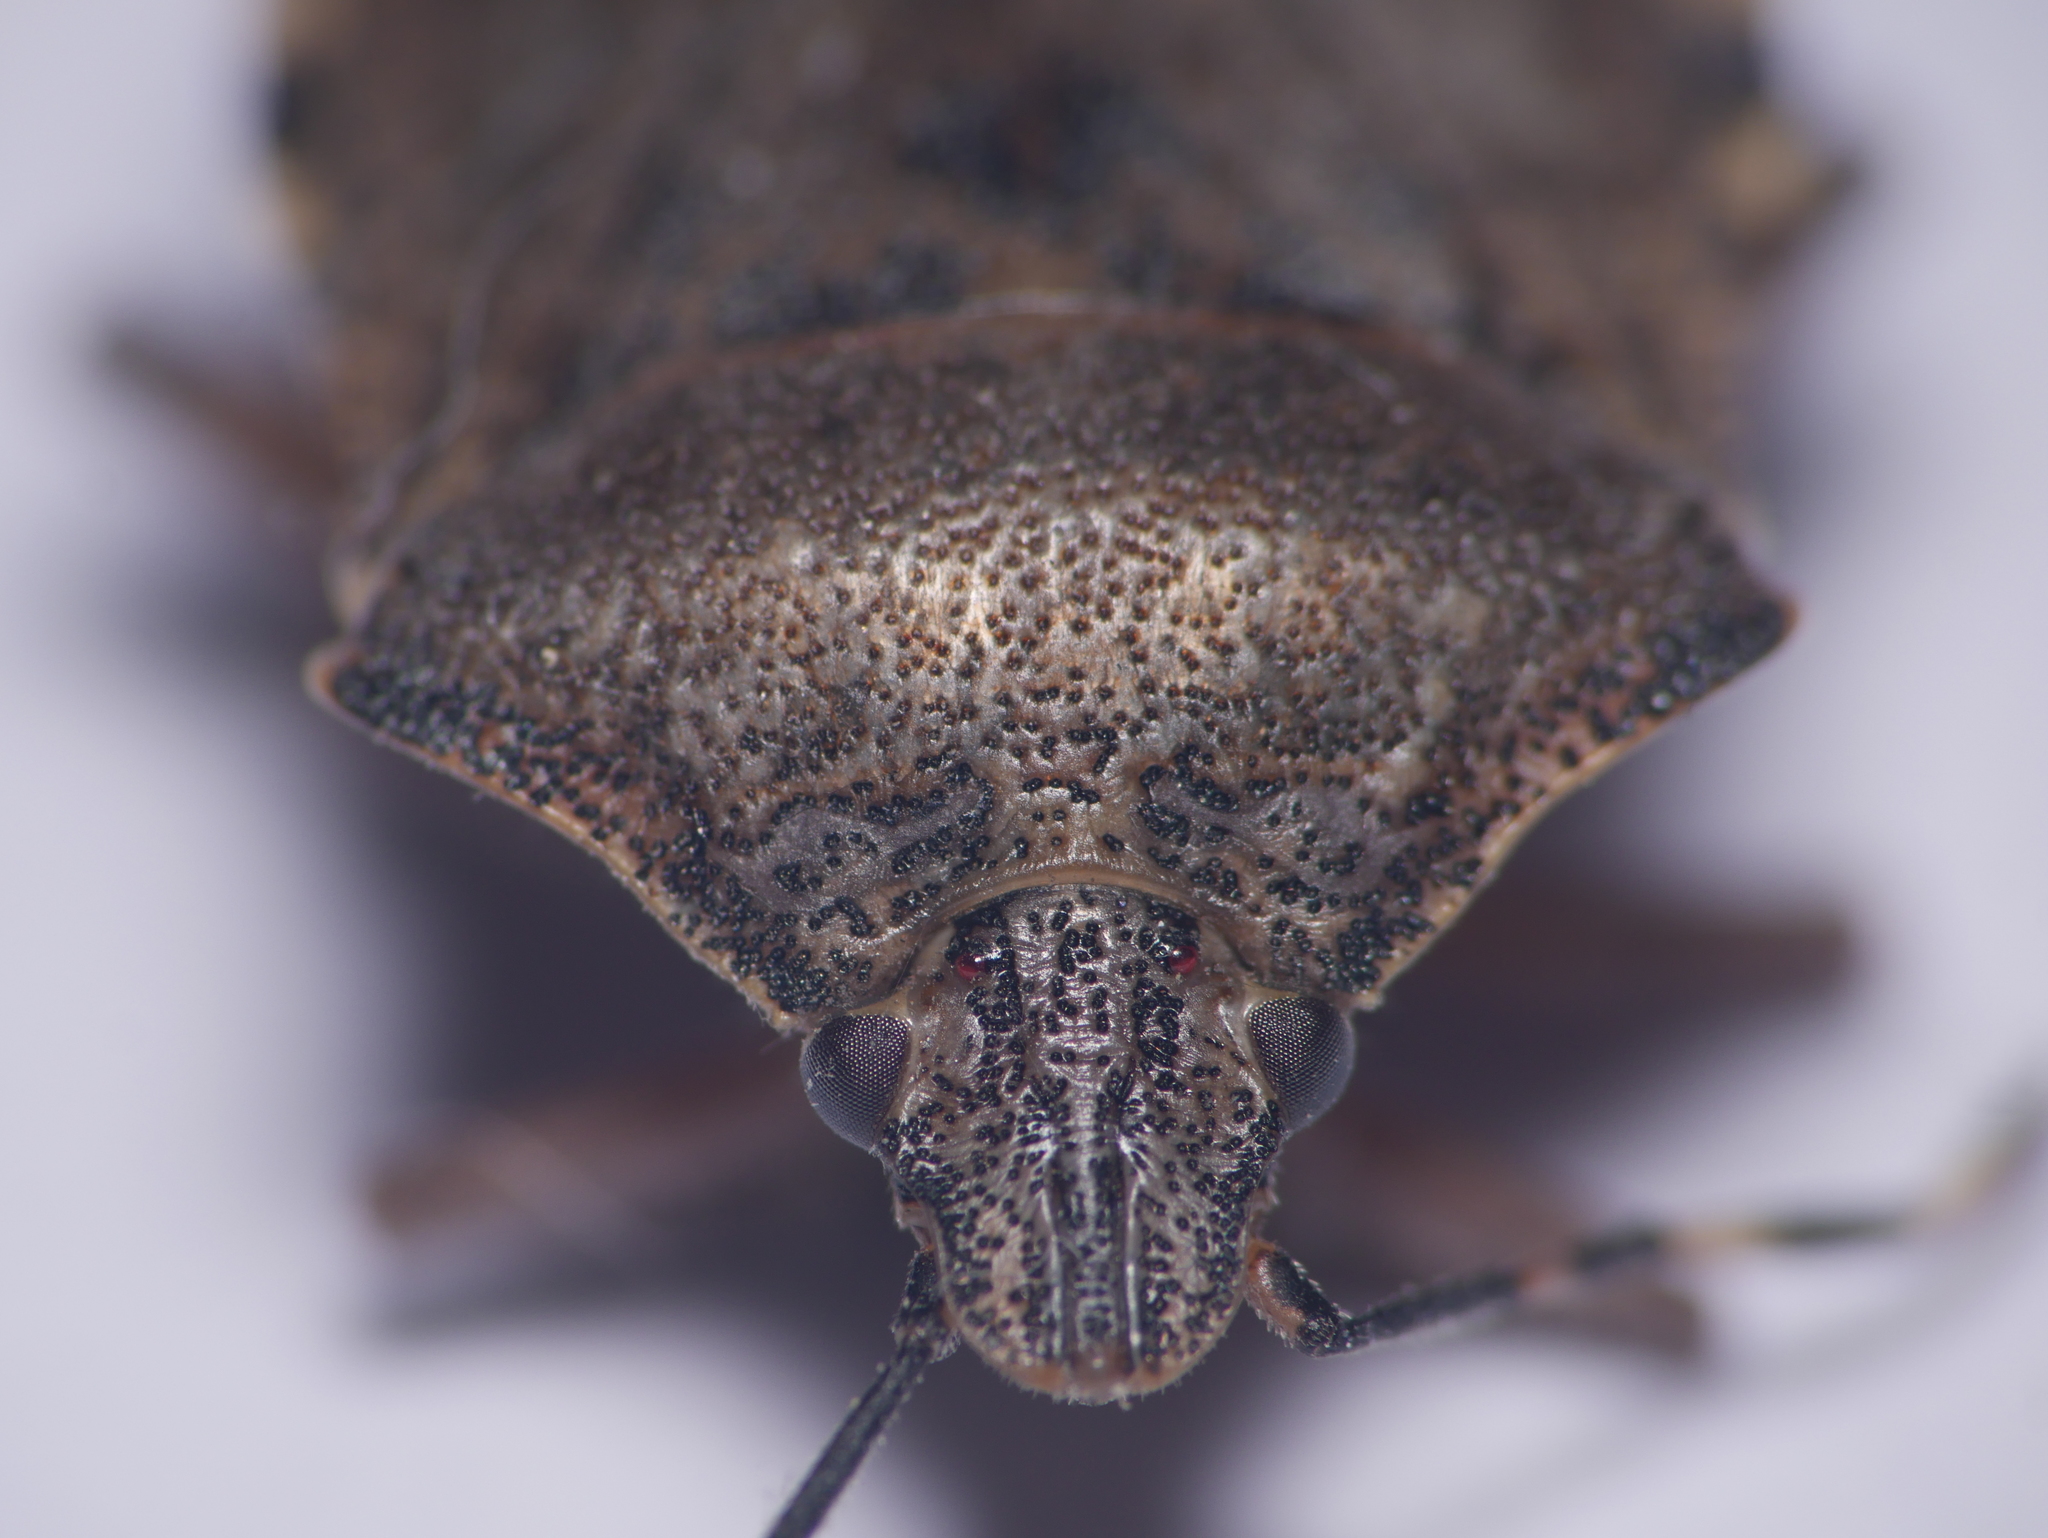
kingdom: Animalia
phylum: Arthropoda
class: Insecta
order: Hemiptera
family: Pentatomidae
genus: Rhaphigaster
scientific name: Rhaphigaster nebulosa
